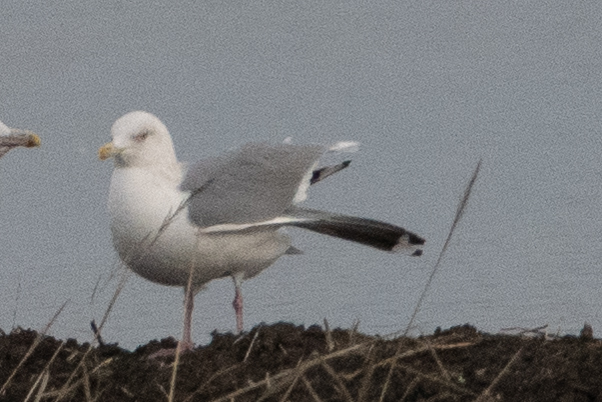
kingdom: Animalia
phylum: Chordata
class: Aves
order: Charadriiformes
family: Laridae
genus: Larus
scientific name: Larus argentatus
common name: Herring gull
